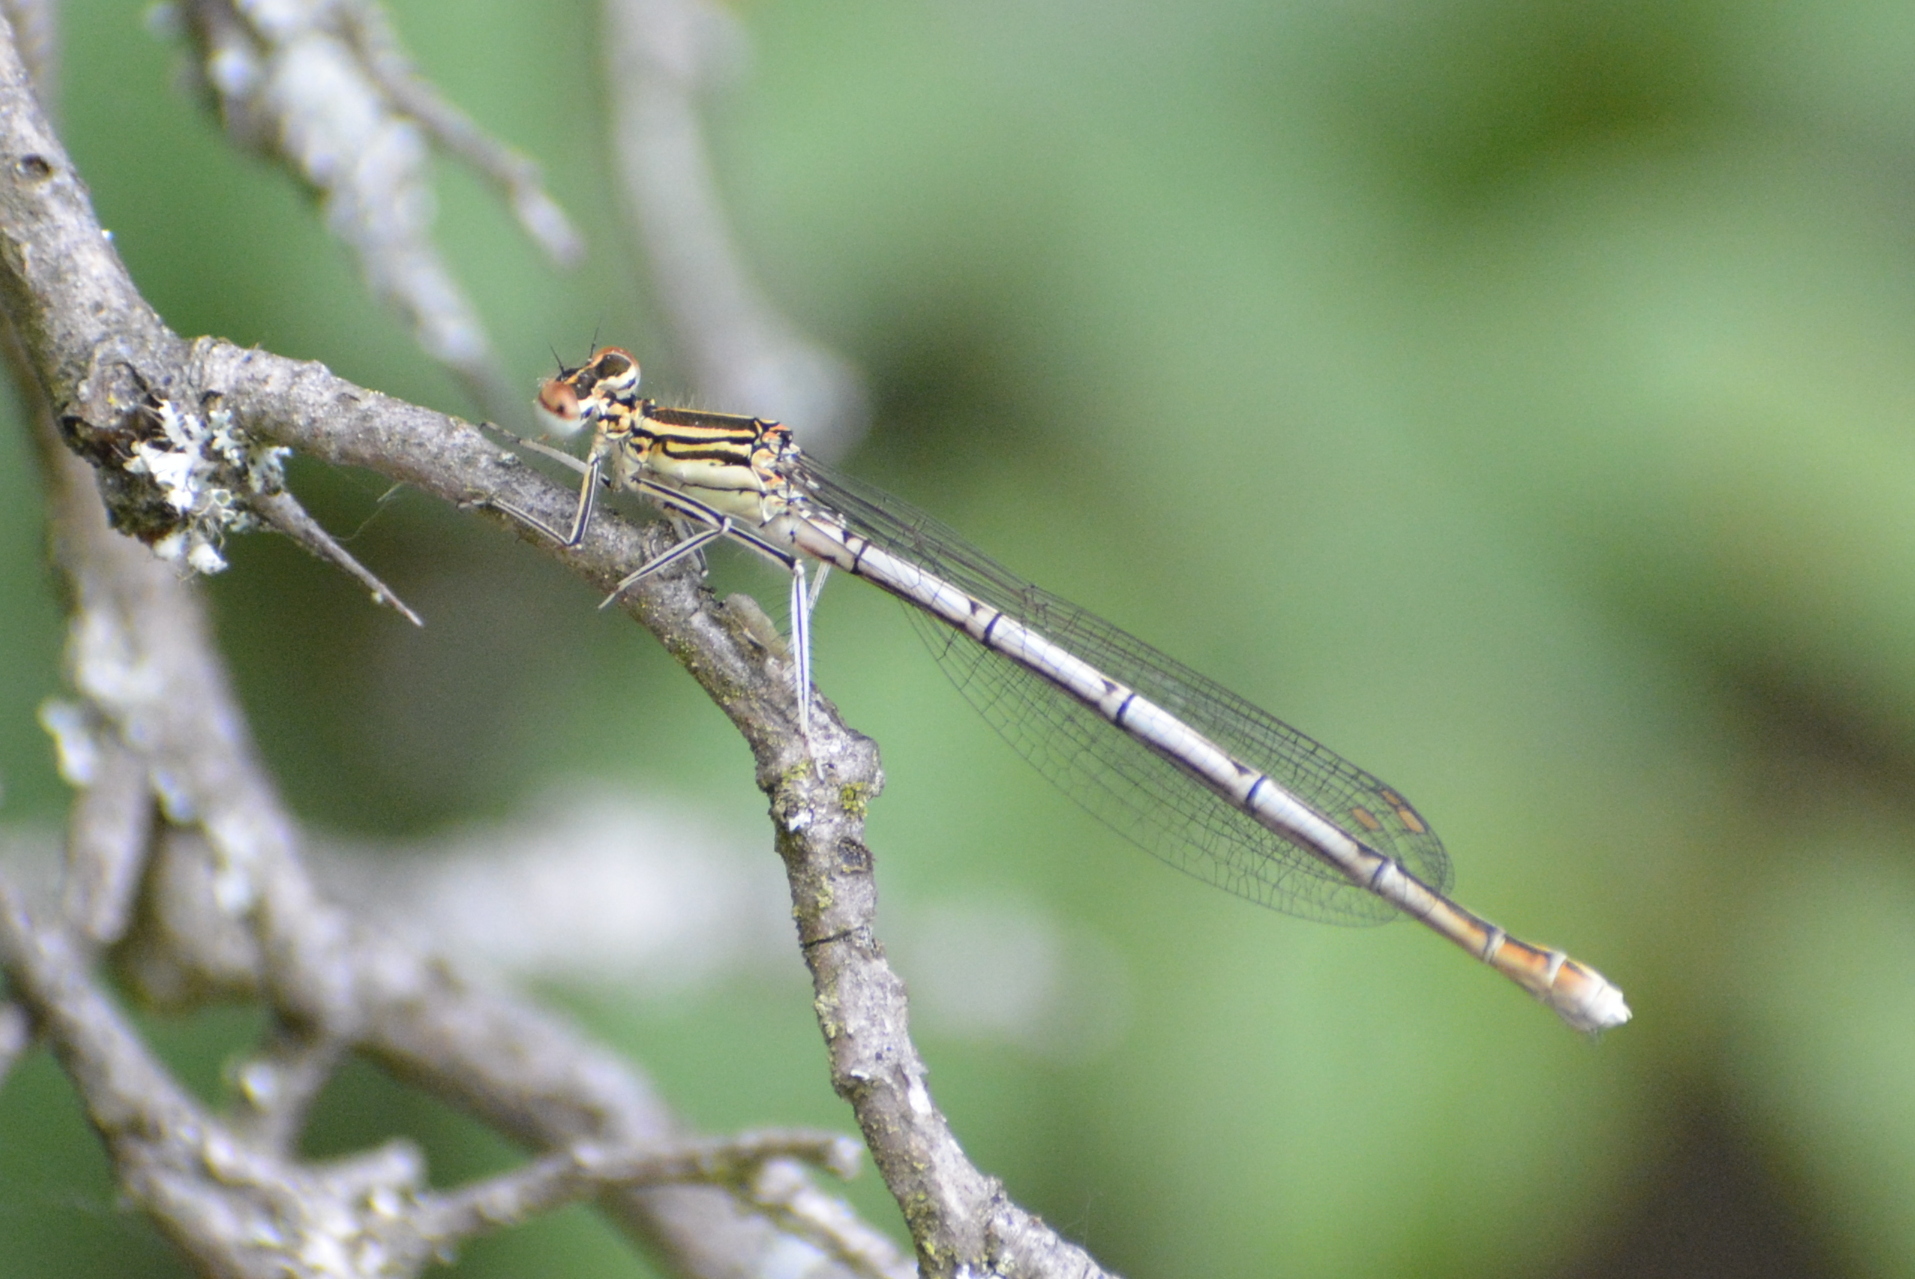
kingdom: Animalia
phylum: Arthropoda
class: Insecta
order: Odonata
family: Platycnemididae
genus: Platycnemis
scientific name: Platycnemis pennipes
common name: White-legged damselfly
